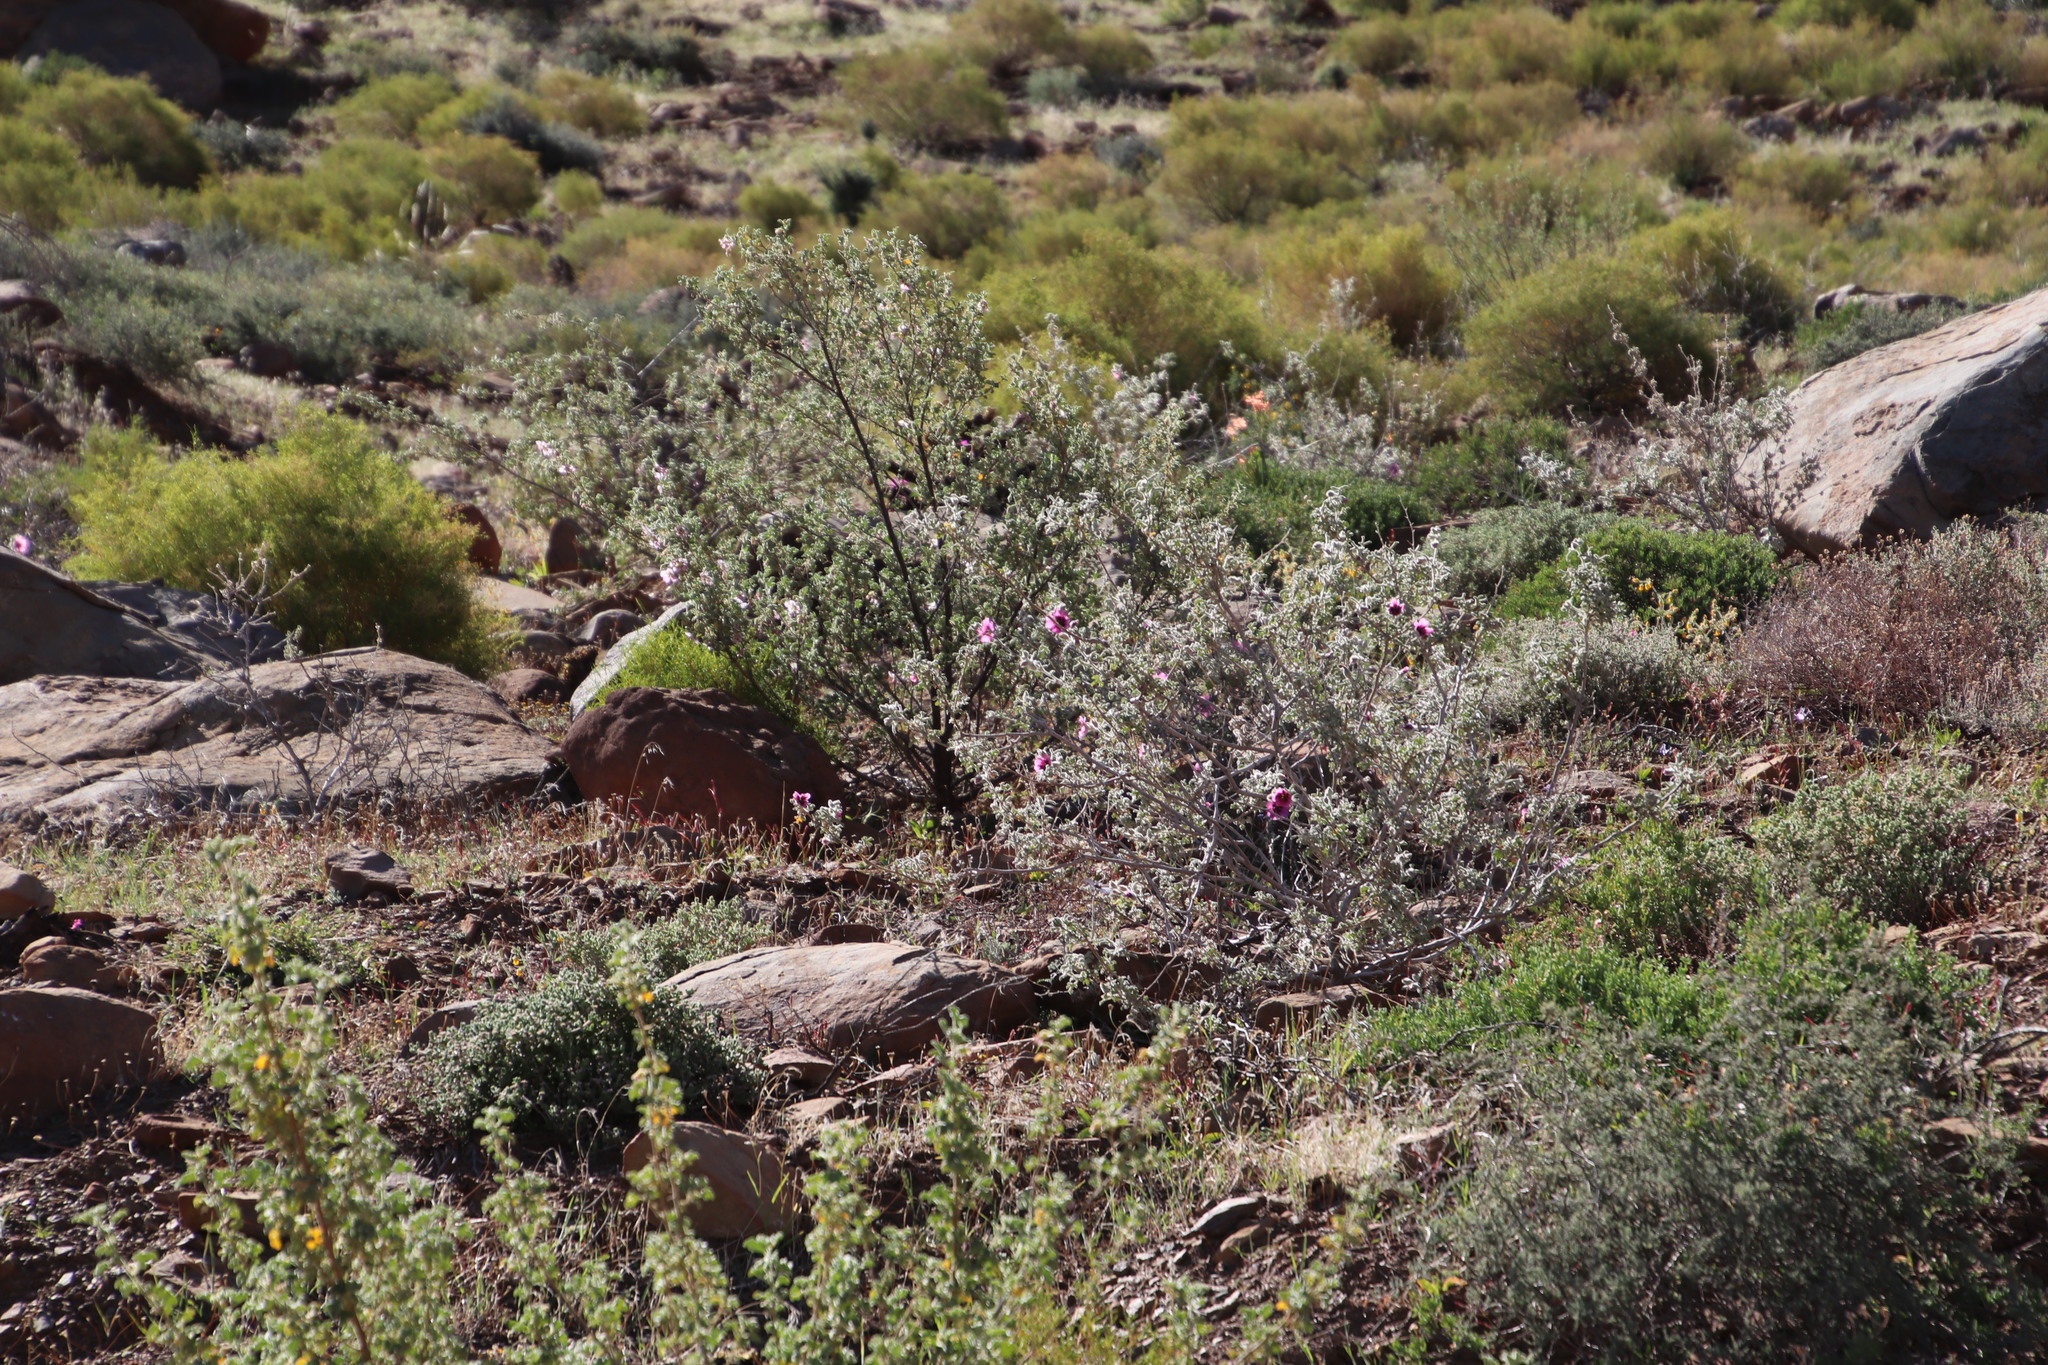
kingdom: Plantae
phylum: Tracheophyta
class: Magnoliopsida
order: Malvales
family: Malvaceae
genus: Anisodontea
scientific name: Anisodontea anomala
